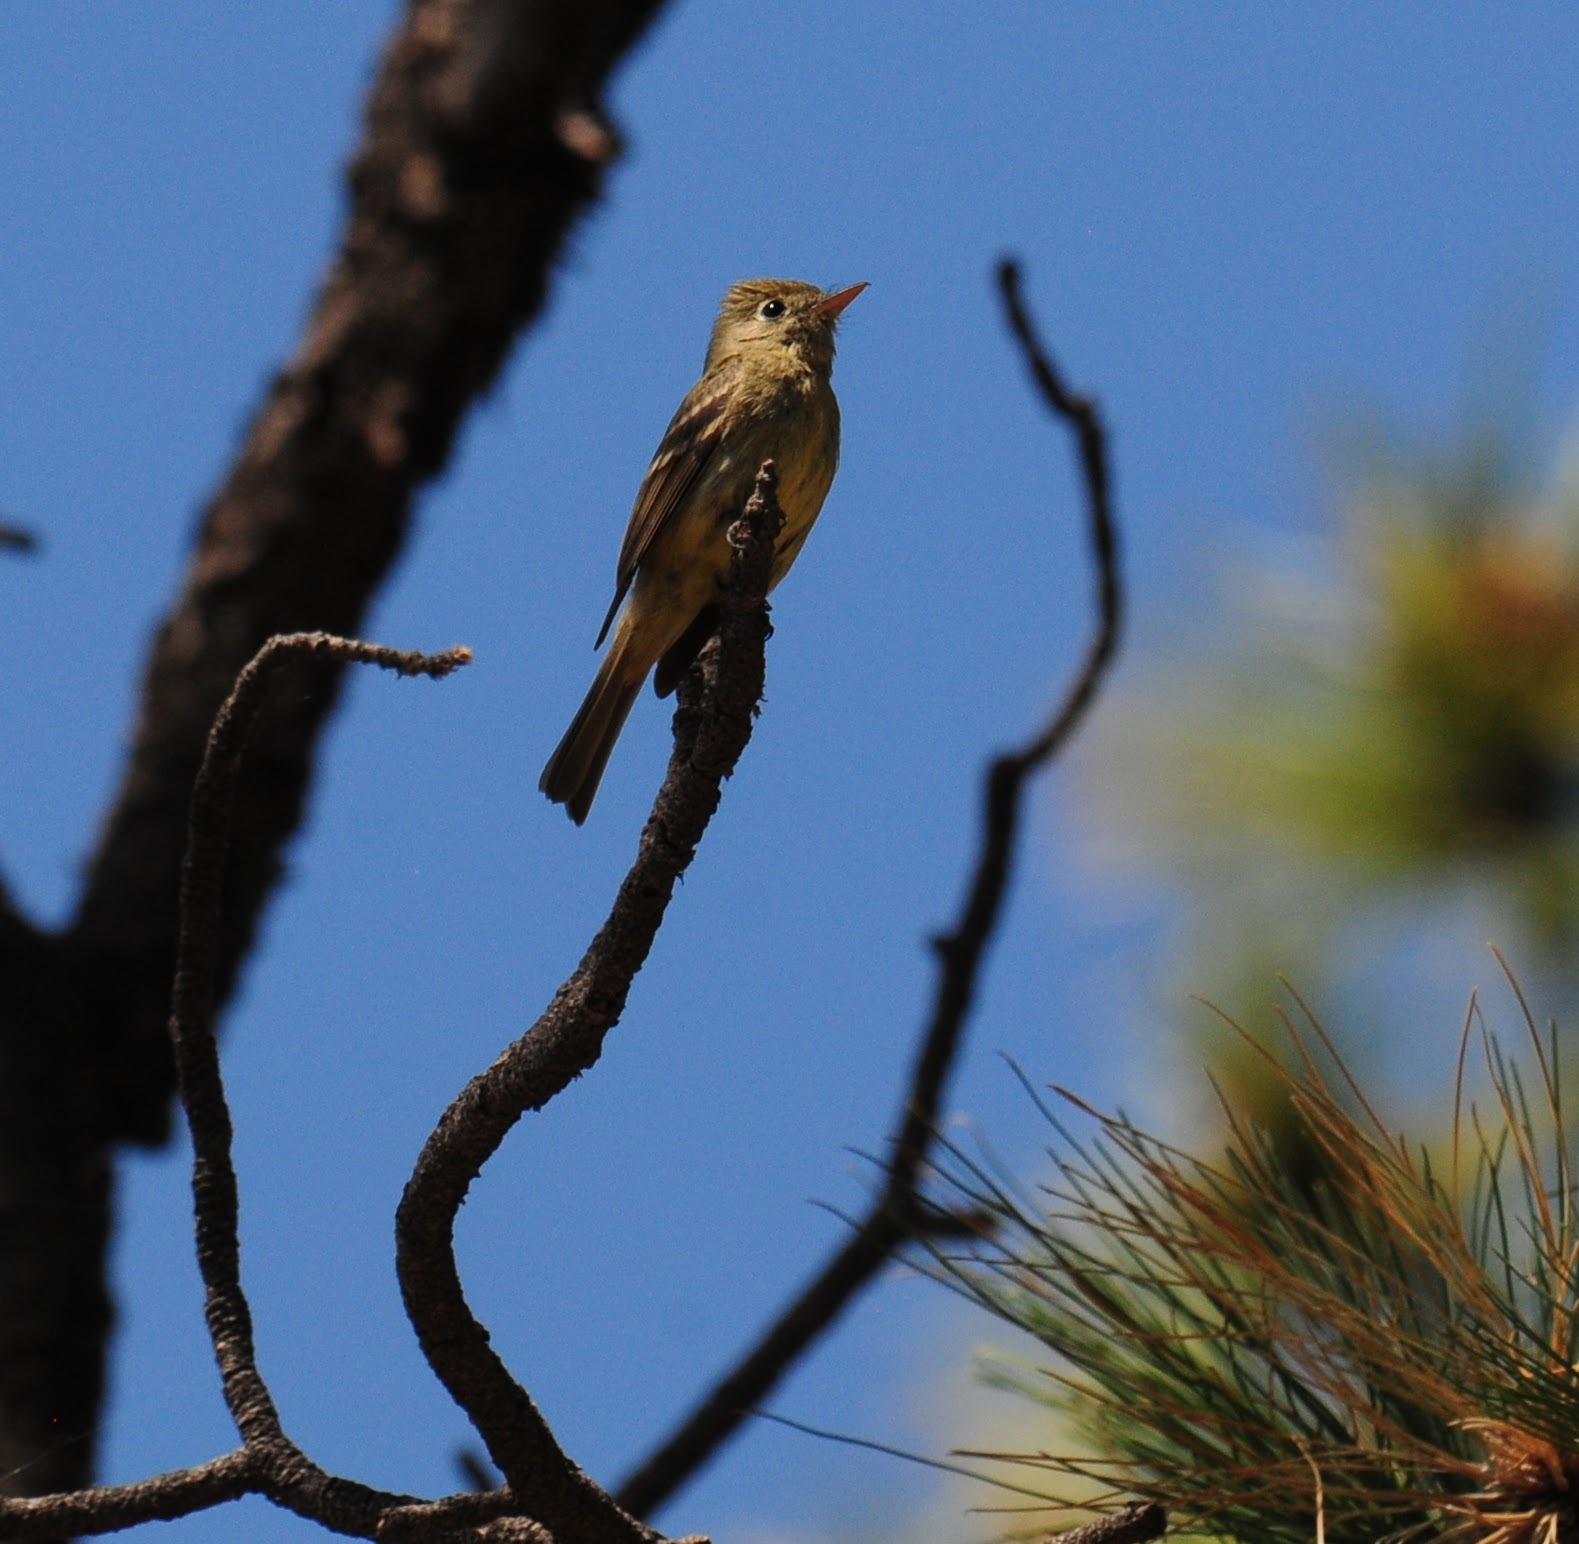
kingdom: Animalia
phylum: Chordata
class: Aves
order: Passeriformes
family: Tyrannidae
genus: Contopus
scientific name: Contopus pertinax
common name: Greater pewee
